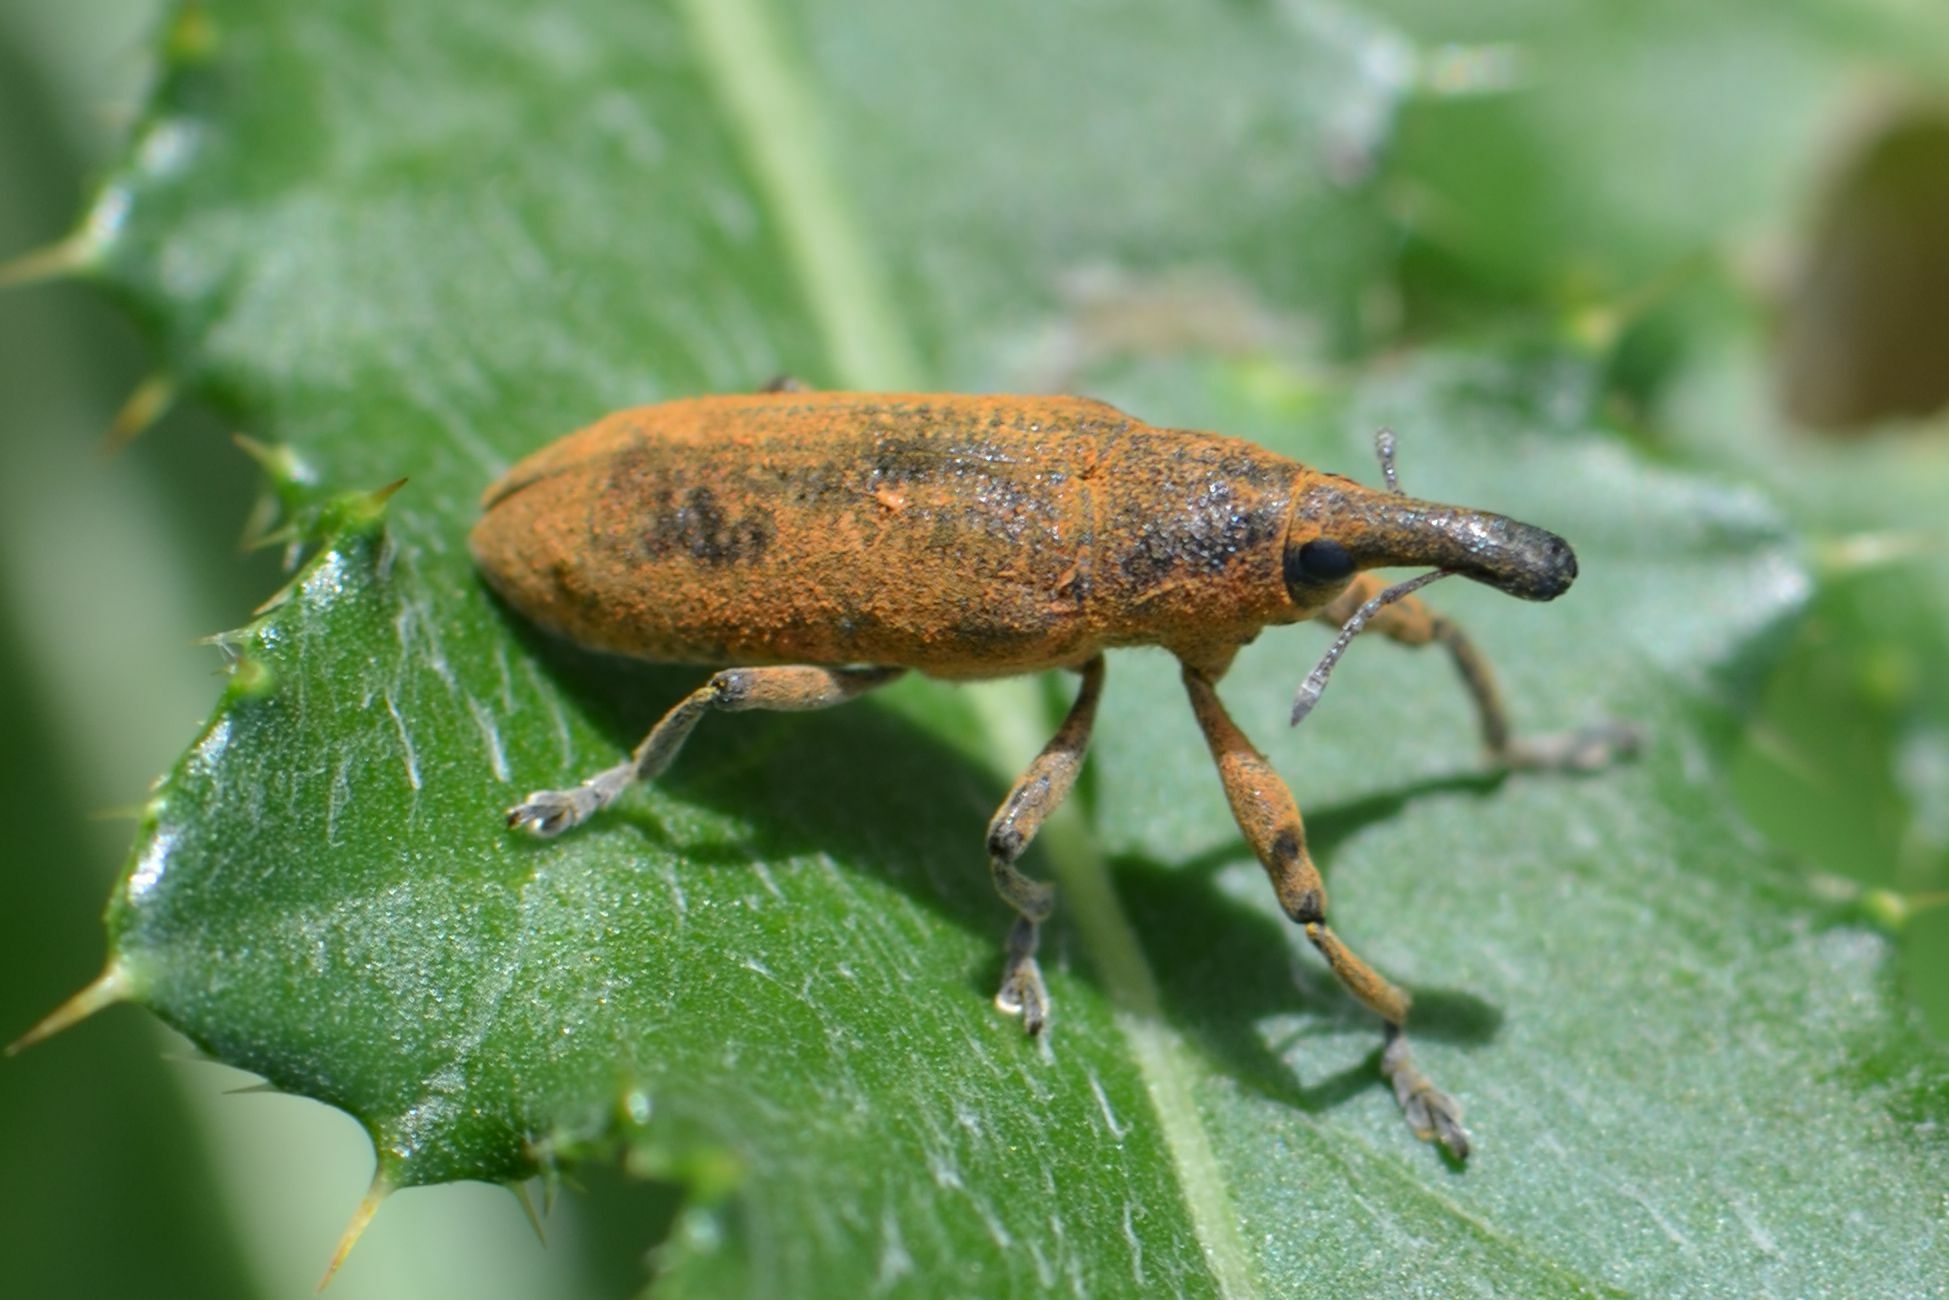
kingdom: Animalia
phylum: Arthropoda
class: Insecta
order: Coleoptera
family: Curculionidae
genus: Lixus
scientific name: Lixus pulverulentus
